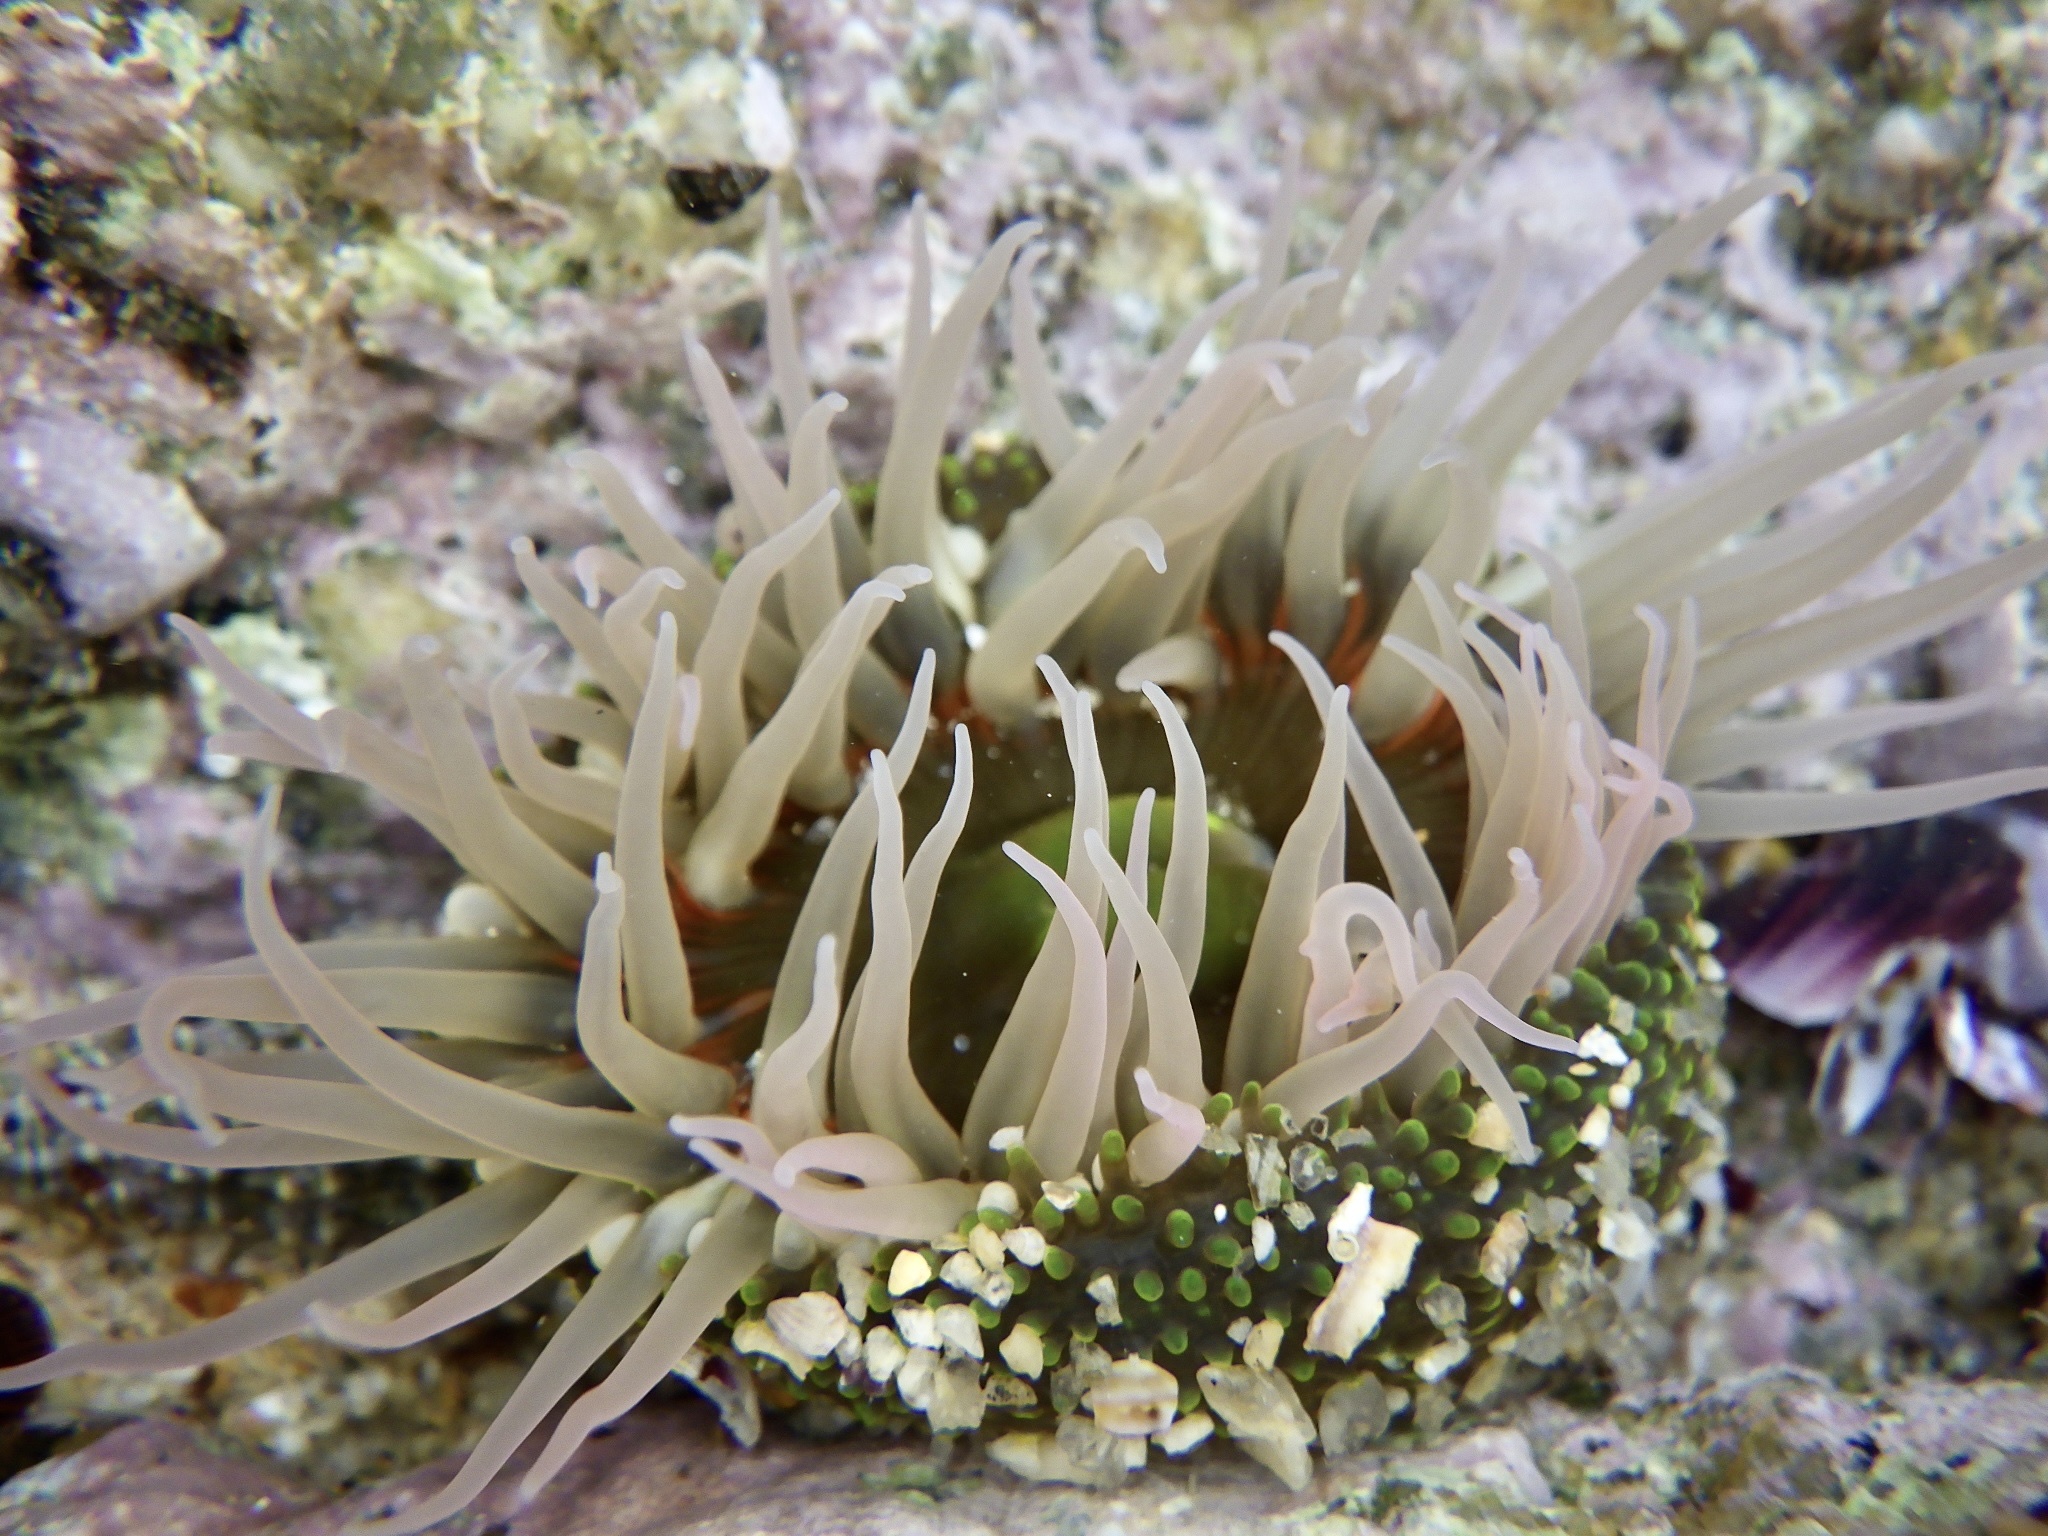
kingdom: Animalia
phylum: Cnidaria
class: Anthozoa
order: Actiniaria
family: Actiniidae
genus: Anthopleura
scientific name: Anthopleura fuscoviridis
